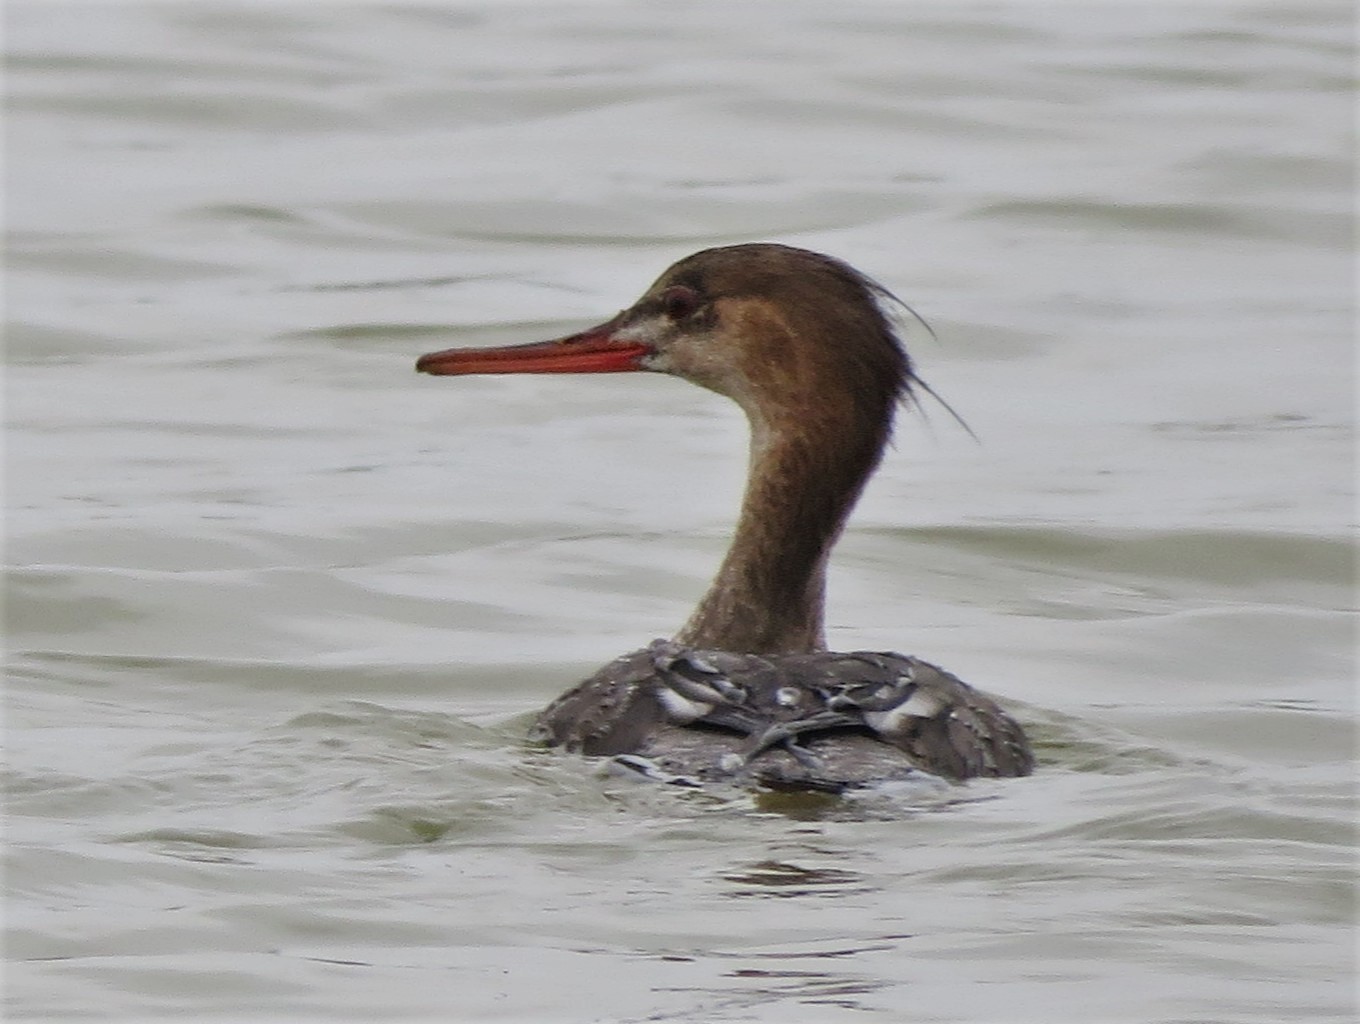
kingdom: Animalia
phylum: Chordata
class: Aves
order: Anseriformes
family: Anatidae
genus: Mergus
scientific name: Mergus serrator
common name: Red-breasted merganser
